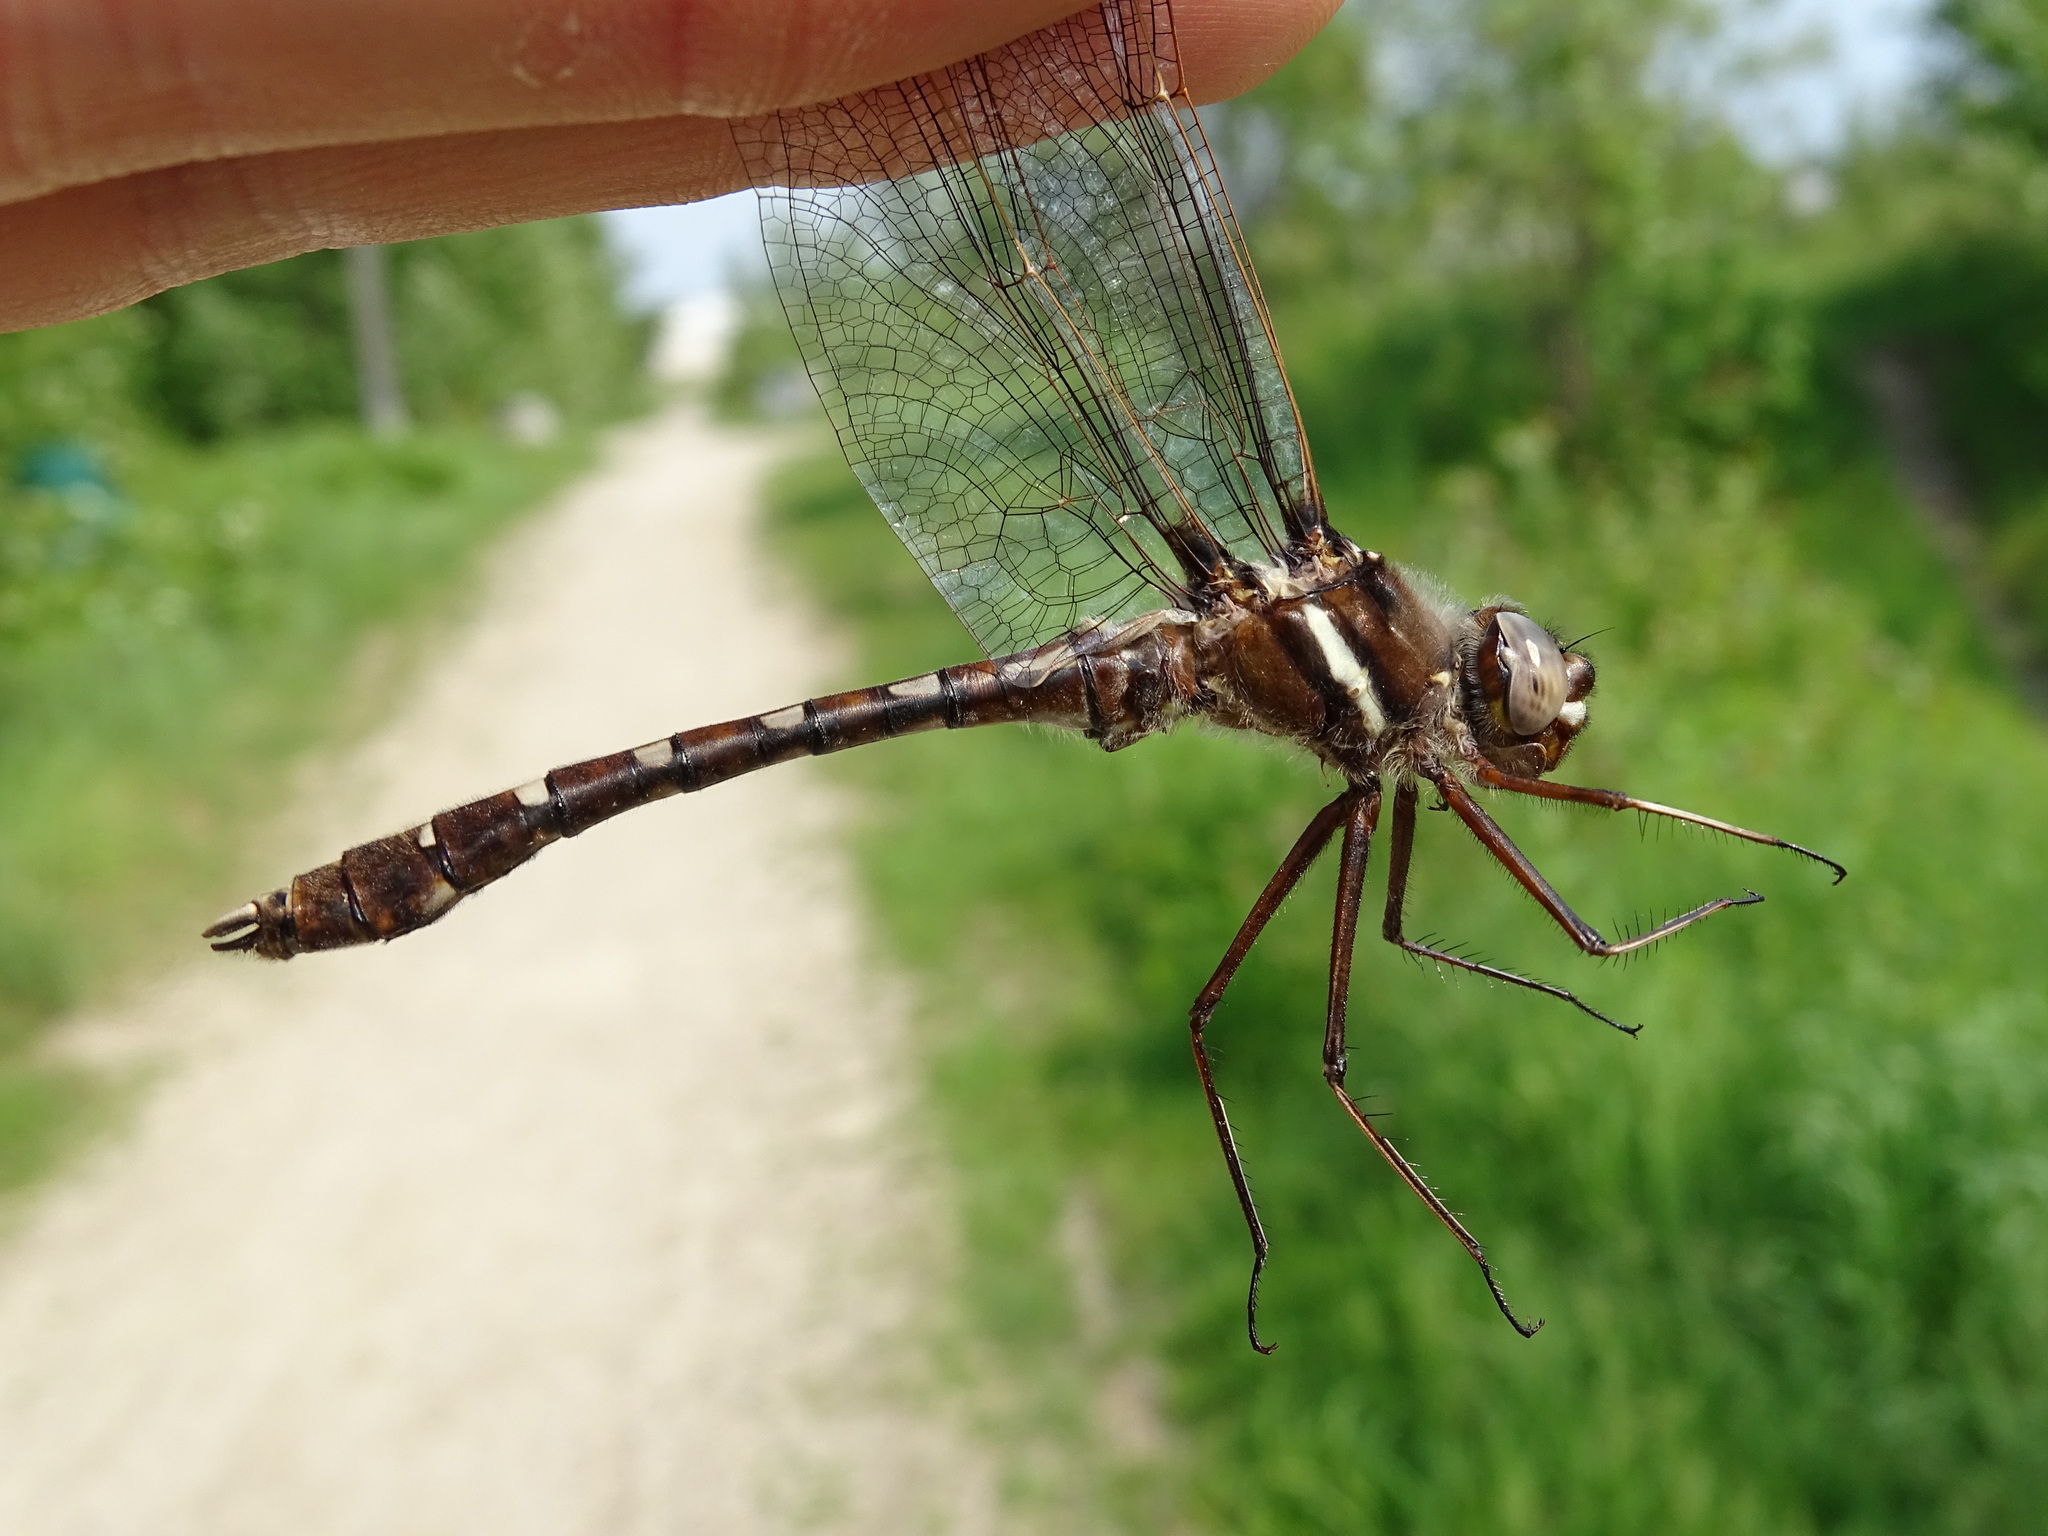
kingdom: Animalia
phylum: Arthropoda
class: Insecta
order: Odonata
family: Macromiidae
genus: Didymops
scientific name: Didymops transversa
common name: Stream cruiser
